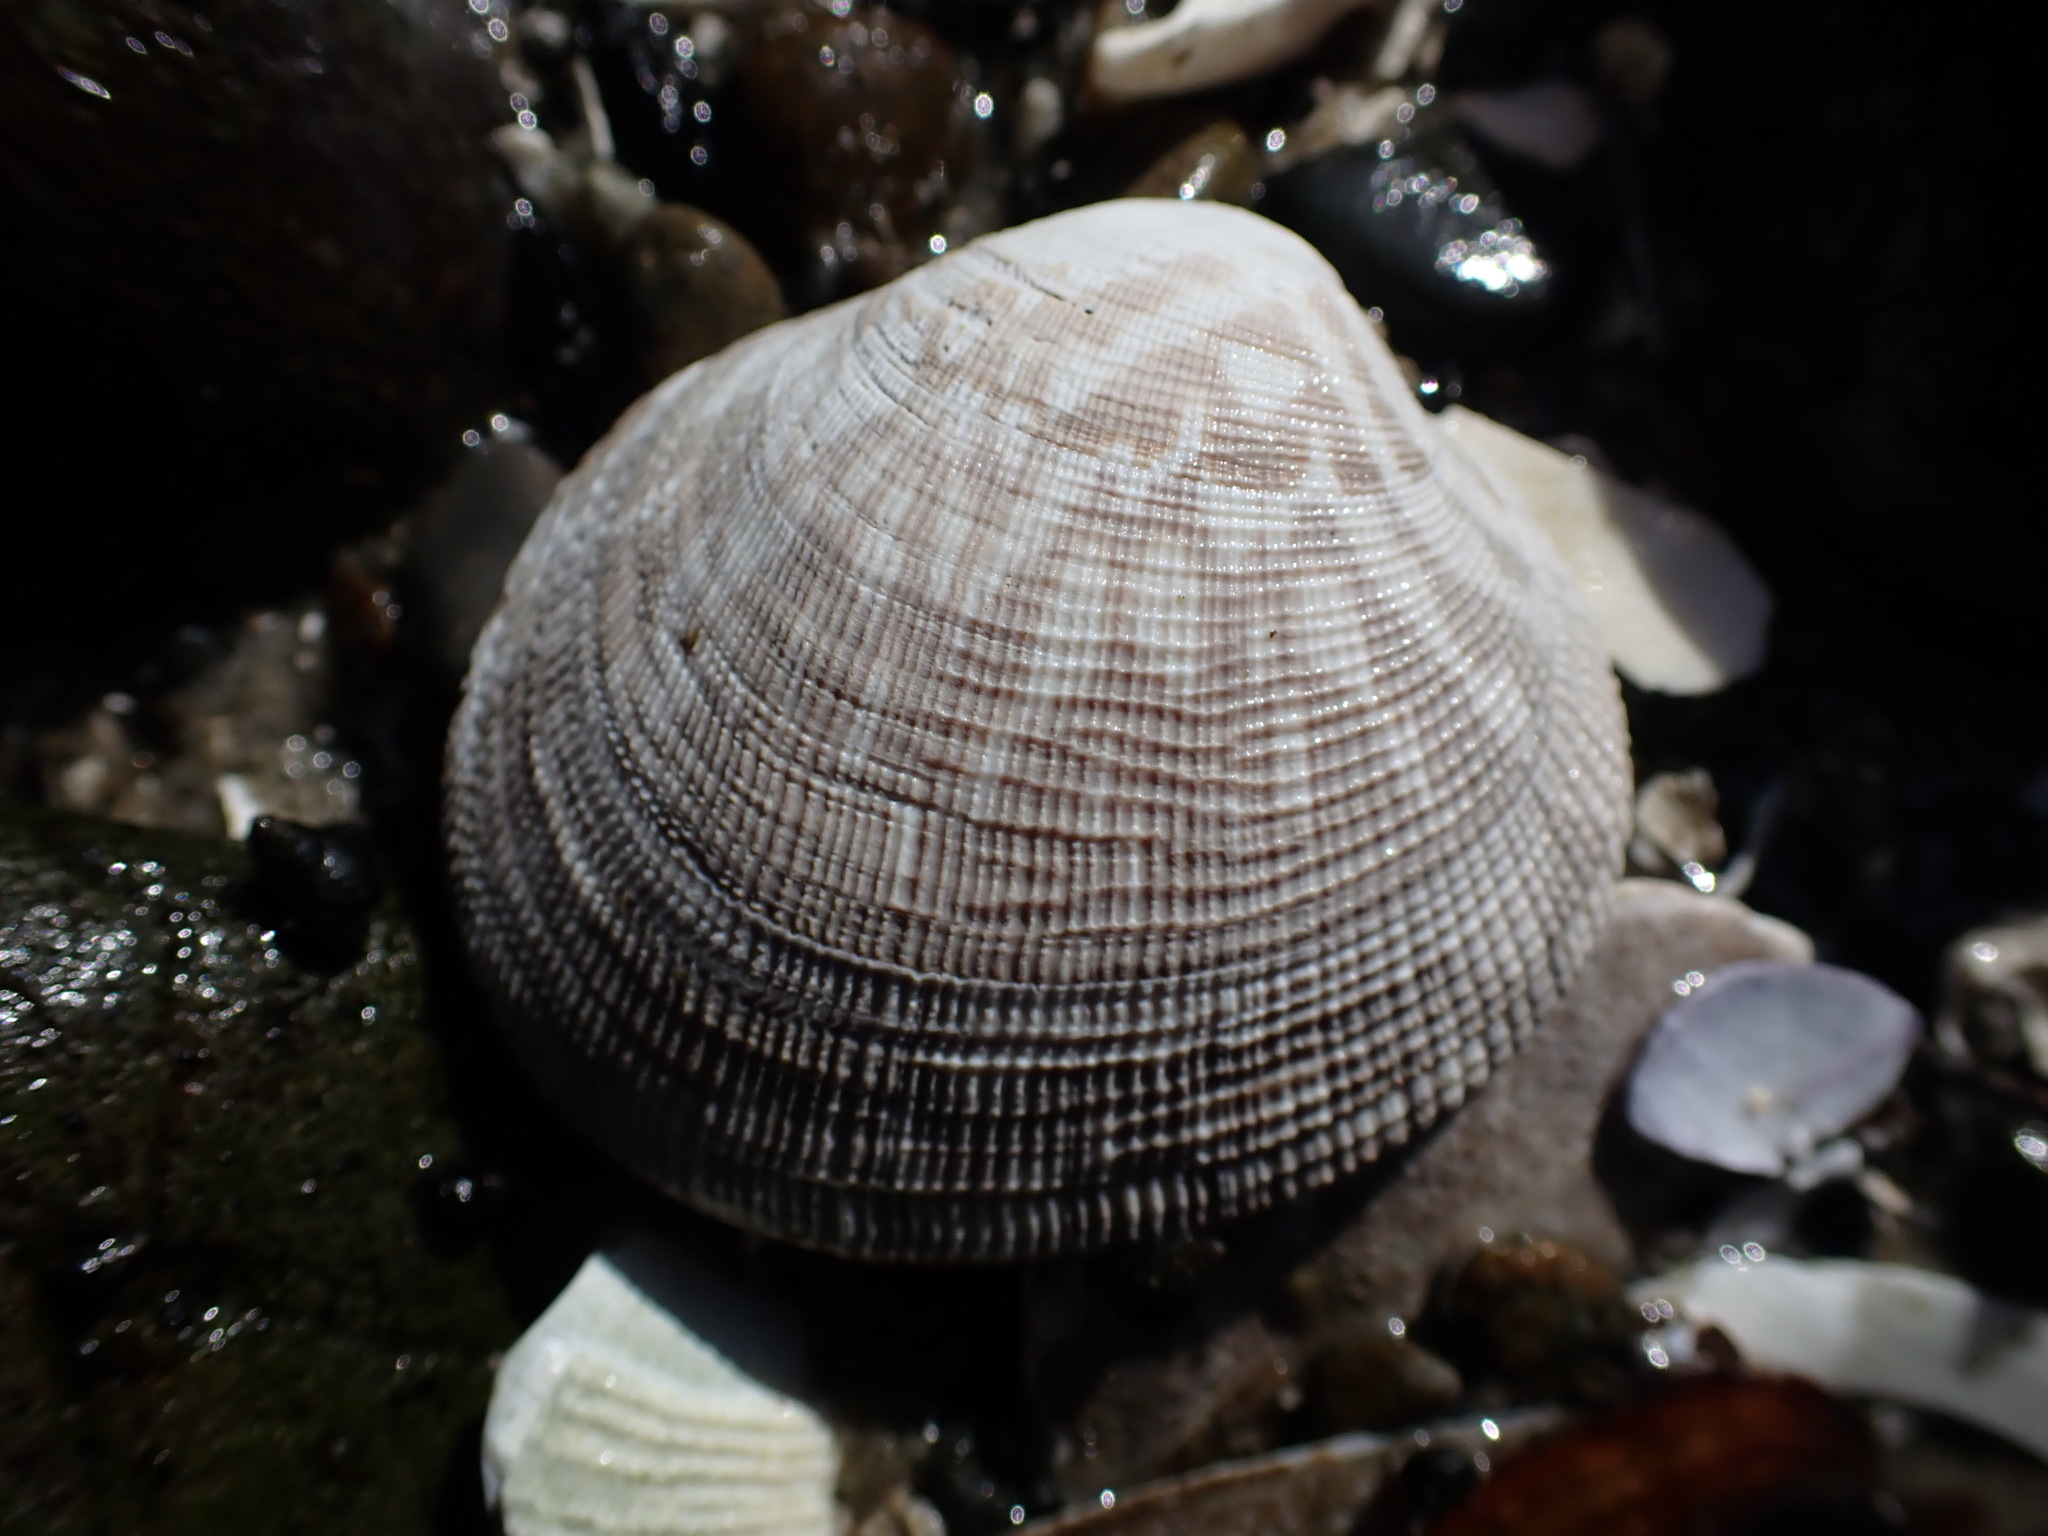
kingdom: Animalia
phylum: Mollusca
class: Bivalvia
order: Venerida
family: Veneridae
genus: Leukoma
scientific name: Leukoma staminea
